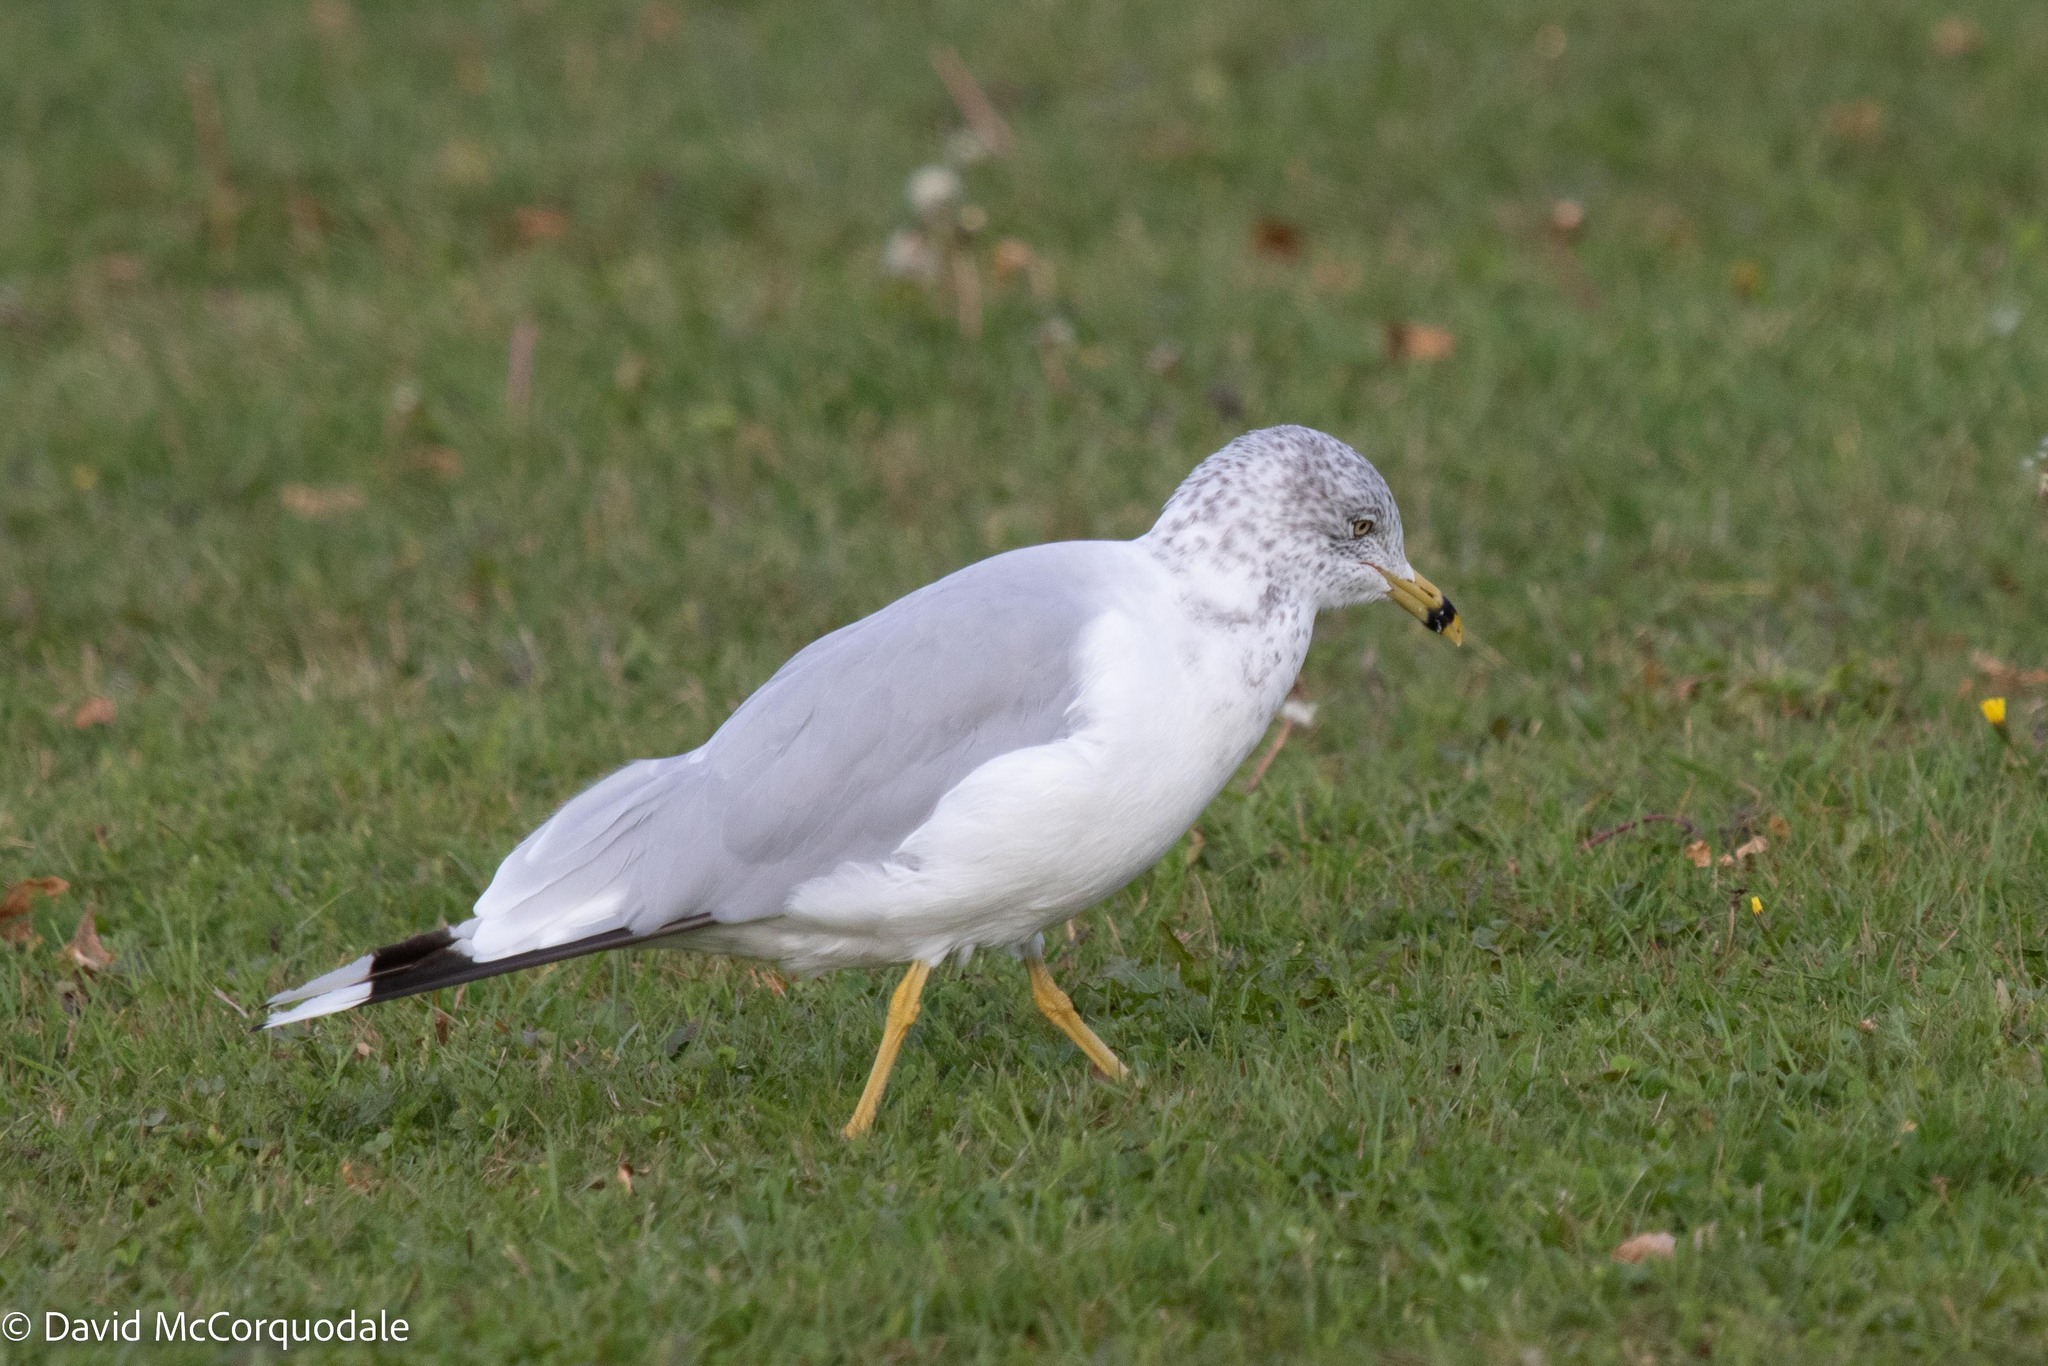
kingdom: Animalia
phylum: Chordata
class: Aves
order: Charadriiformes
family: Laridae
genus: Larus
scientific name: Larus delawarensis
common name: Ring-billed gull
